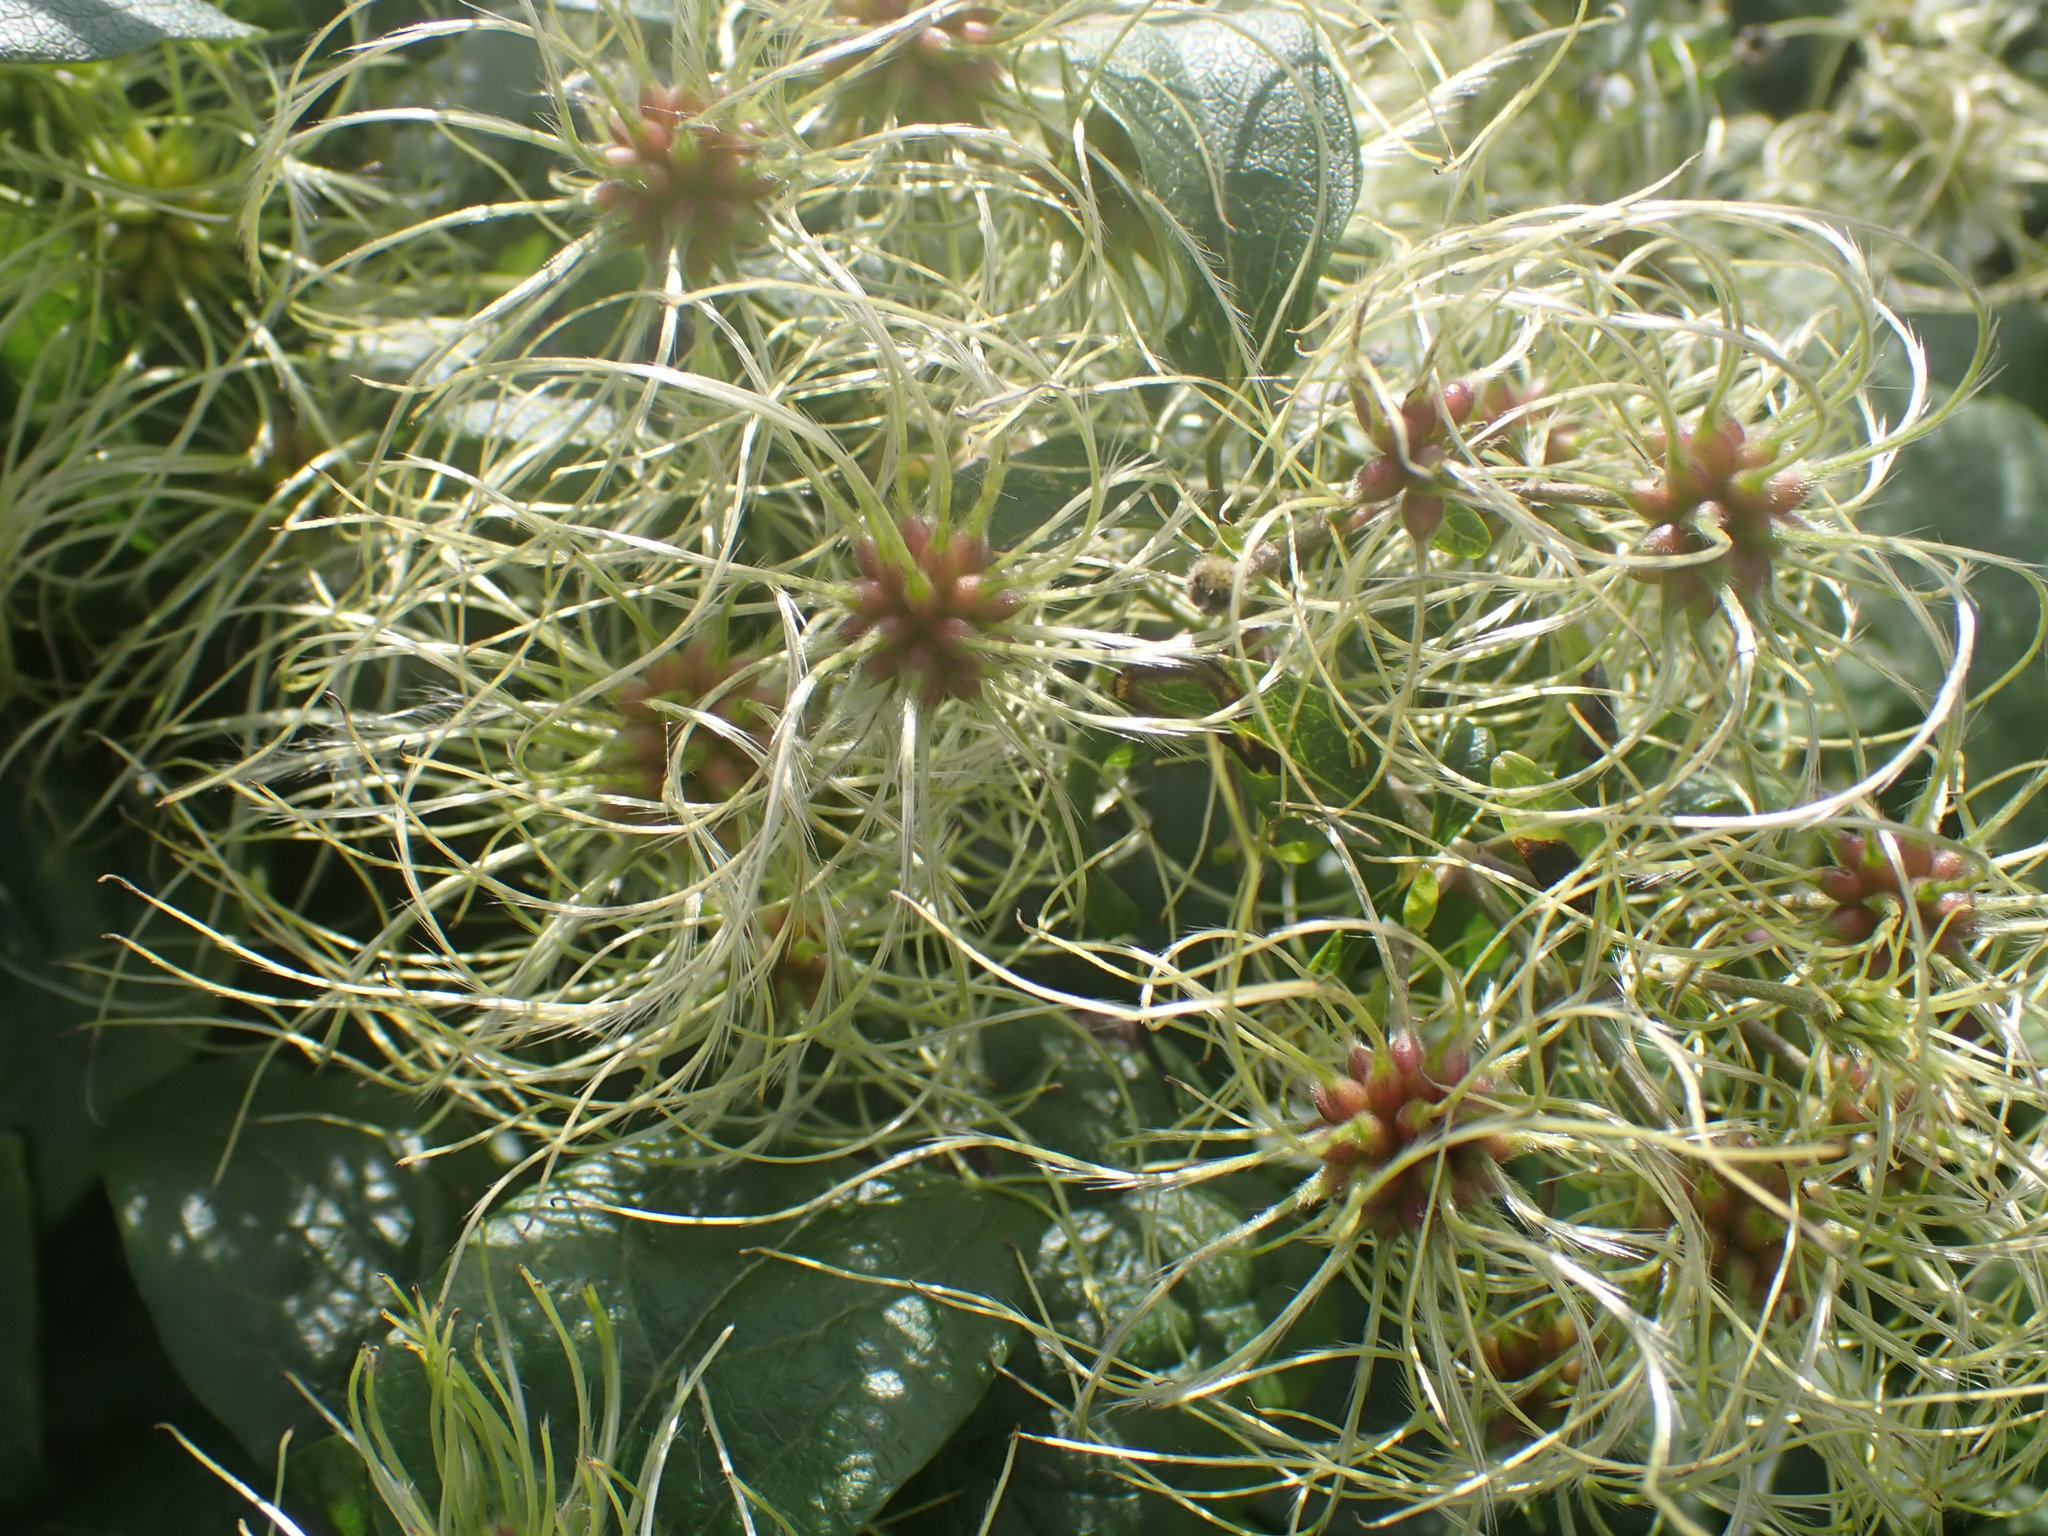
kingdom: Plantae
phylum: Tracheophyta
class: Magnoliopsida
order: Ranunculales
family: Ranunculaceae
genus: Clematis
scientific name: Clematis vitalba
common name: Evergreen clematis
